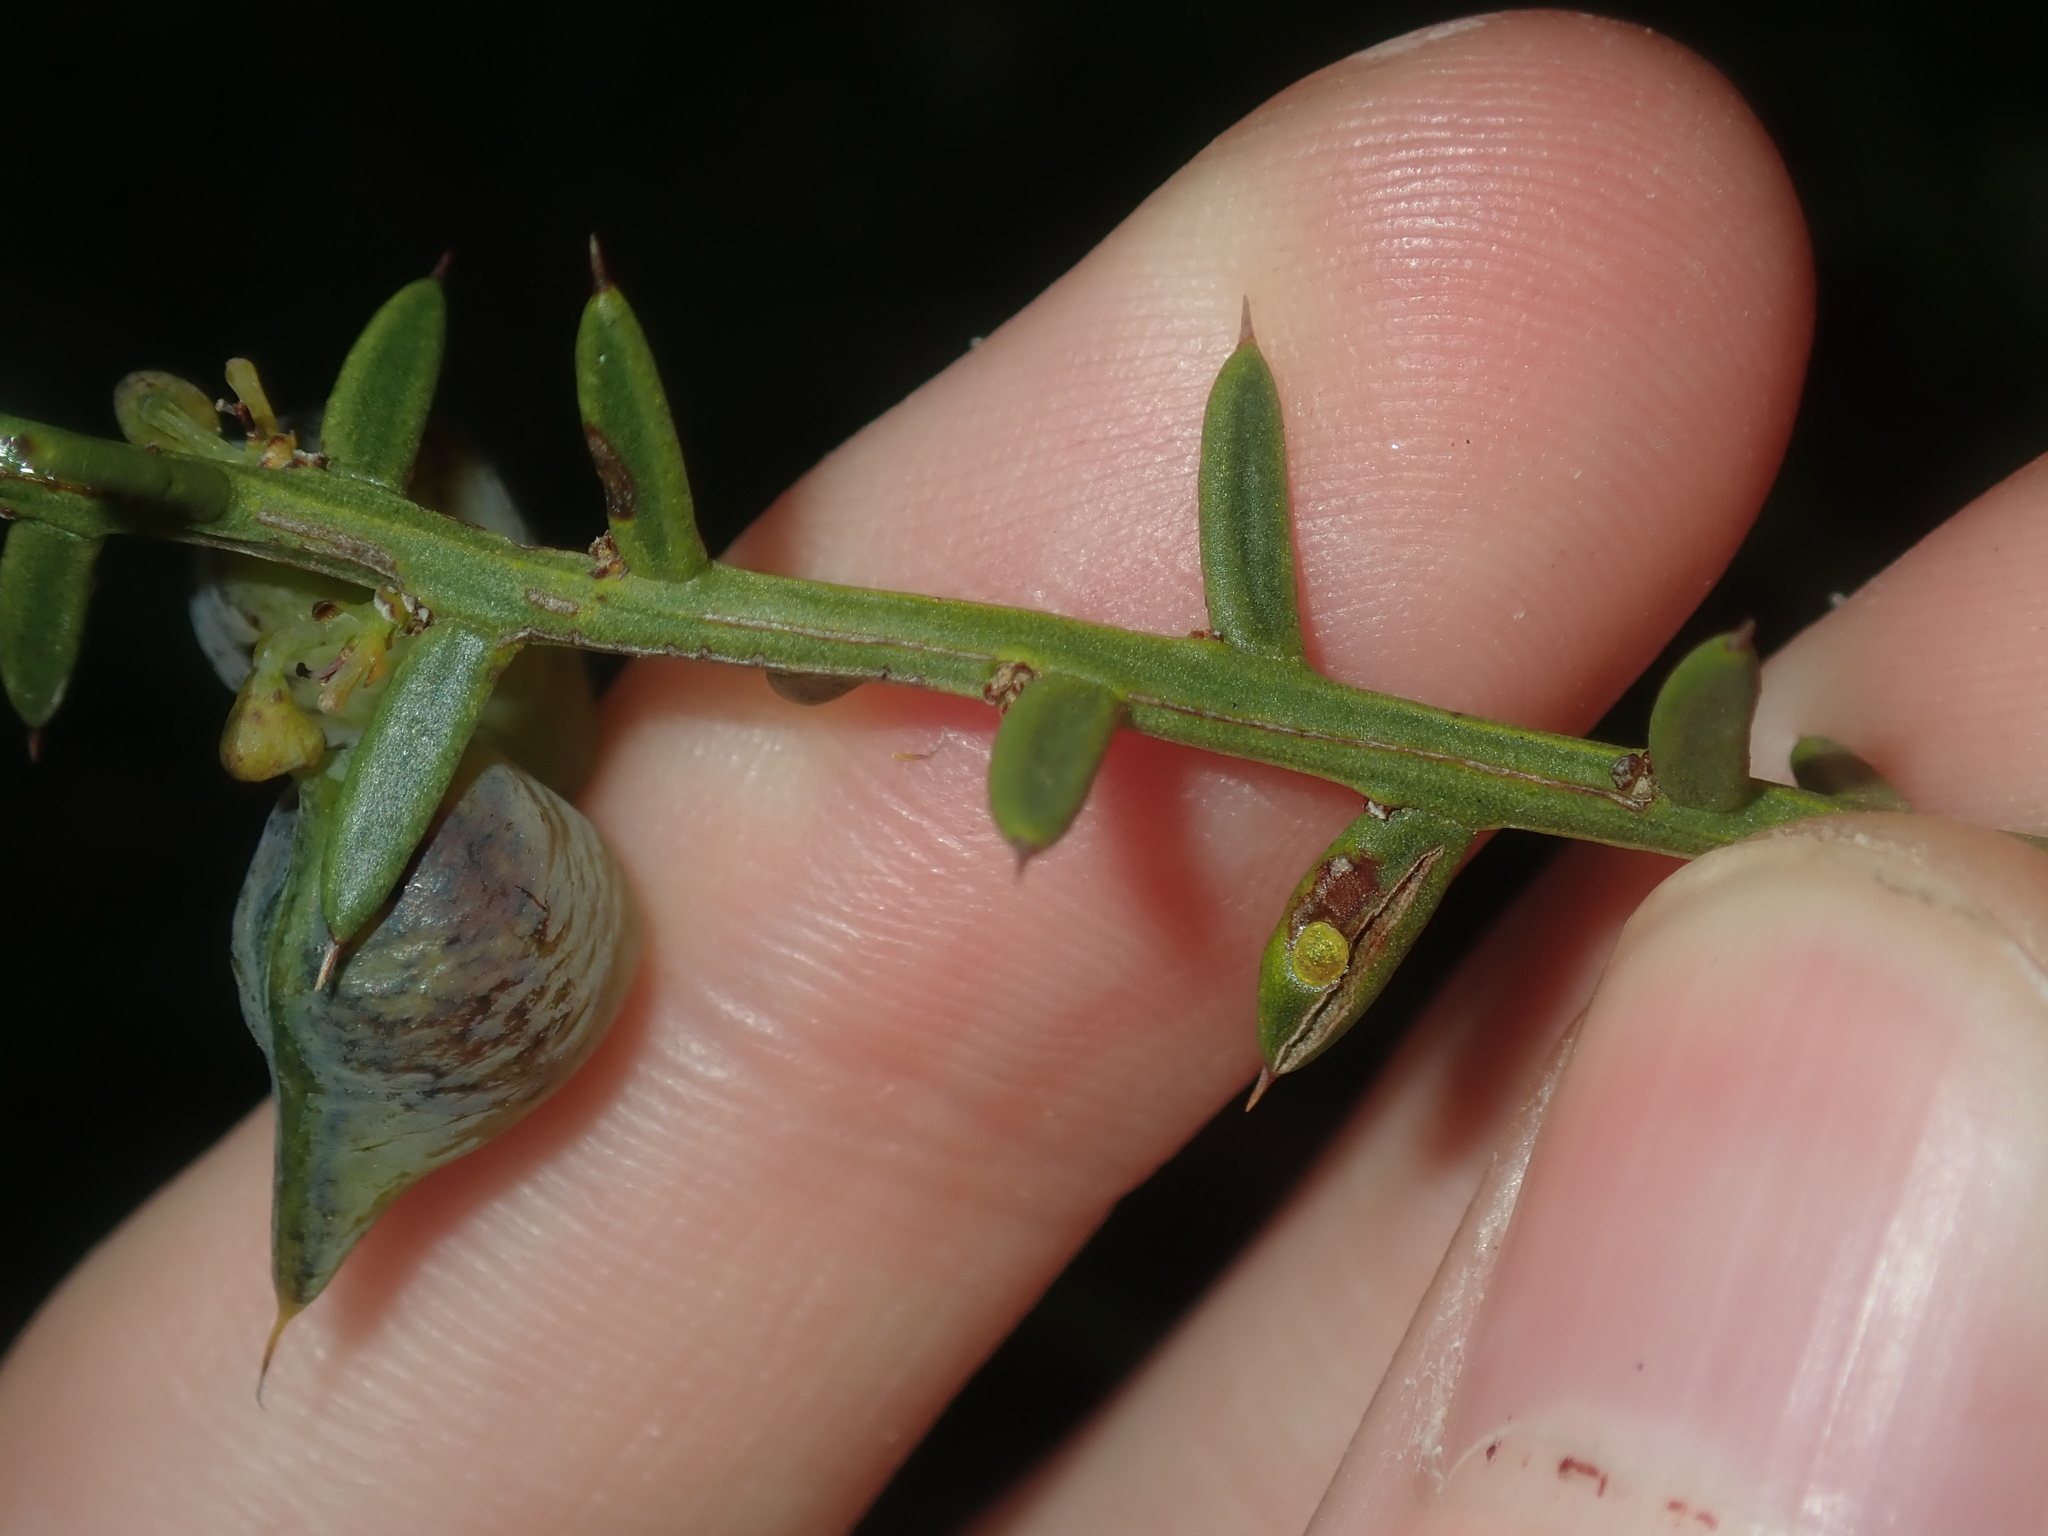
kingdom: Plantae
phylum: Tracheophyta
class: Magnoliopsida
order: Fabales
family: Fabaceae
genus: Daviesia
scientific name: Daviesia angulata
